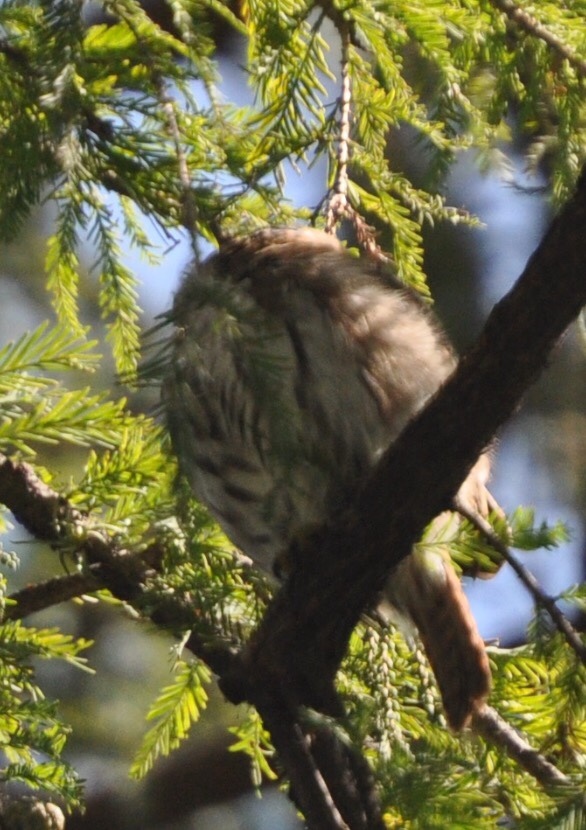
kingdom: Animalia
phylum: Chordata
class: Aves
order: Strigiformes
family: Strigidae
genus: Glaucidium
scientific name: Glaucidium brasilianum
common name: Ferruginous pygmy-owl
